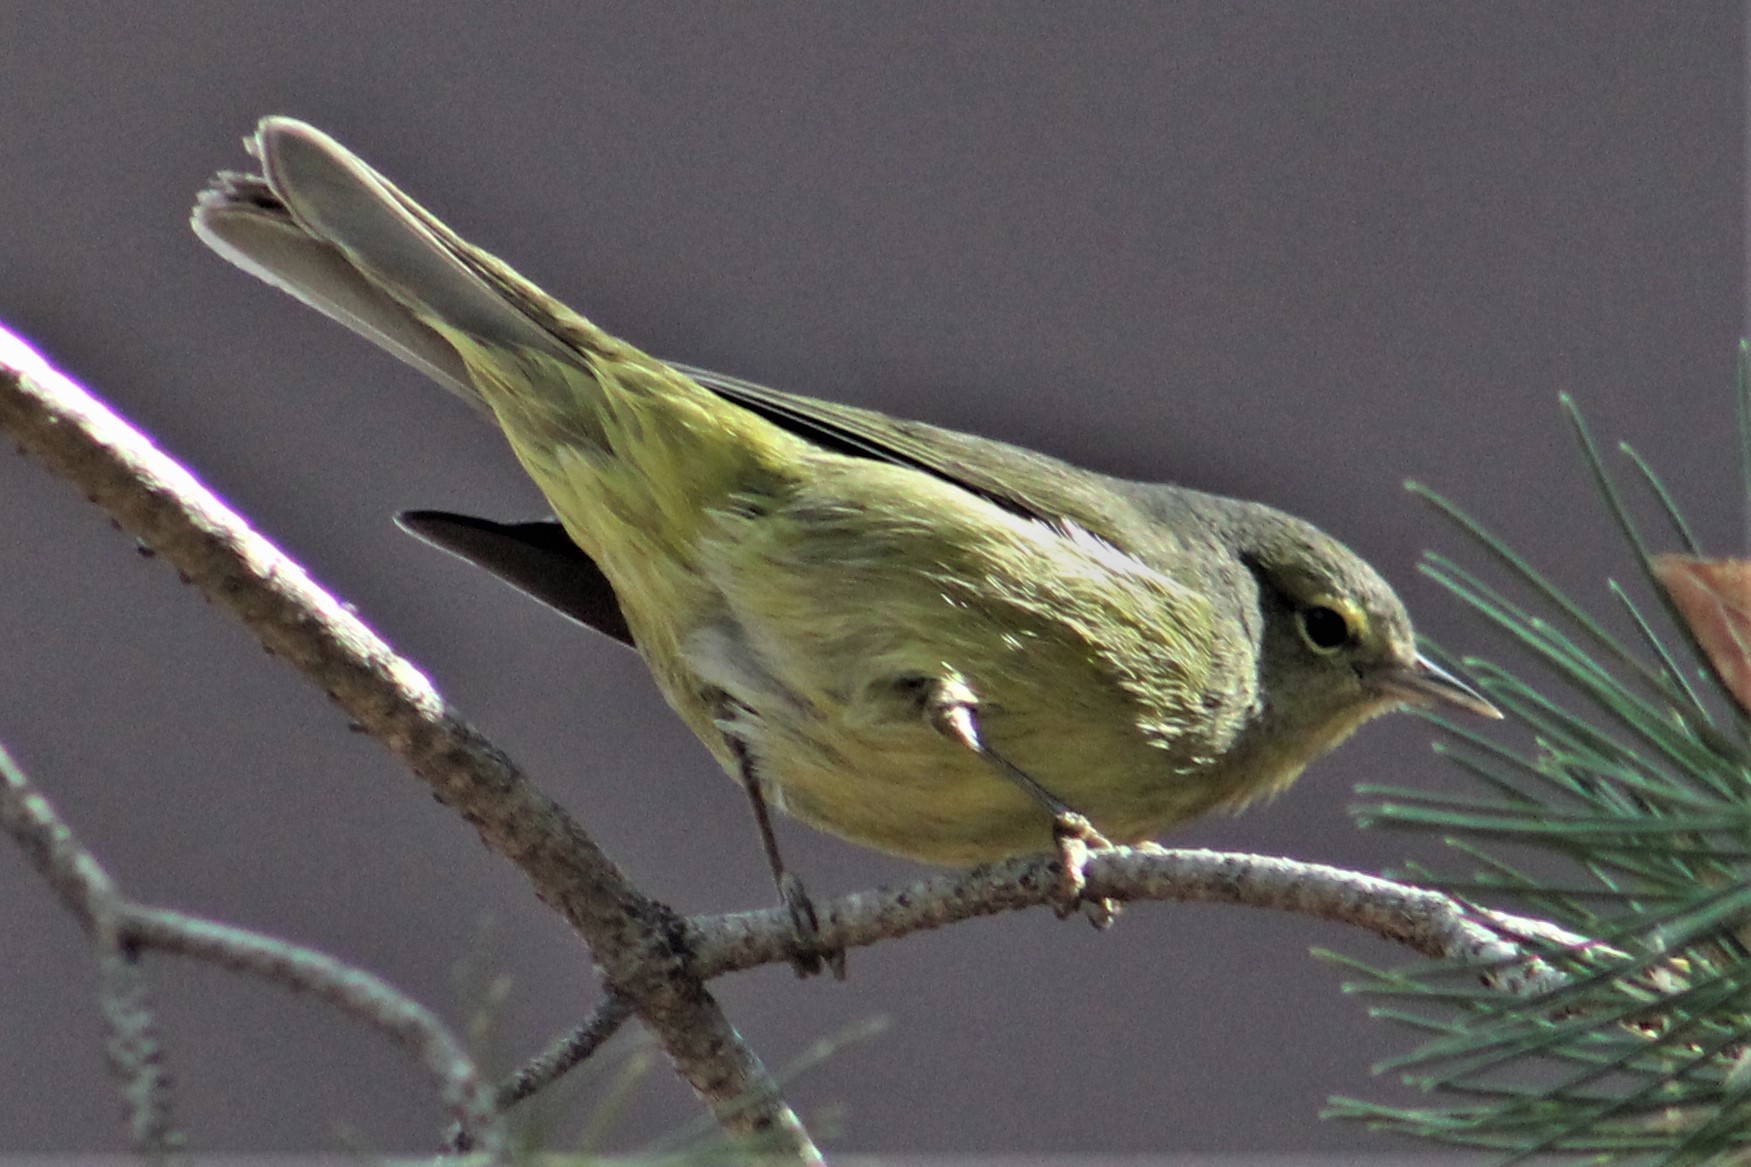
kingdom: Animalia
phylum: Chordata
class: Aves
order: Passeriformes
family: Parulidae
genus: Leiothlypis
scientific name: Leiothlypis celata
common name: Orange-crowned warbler
